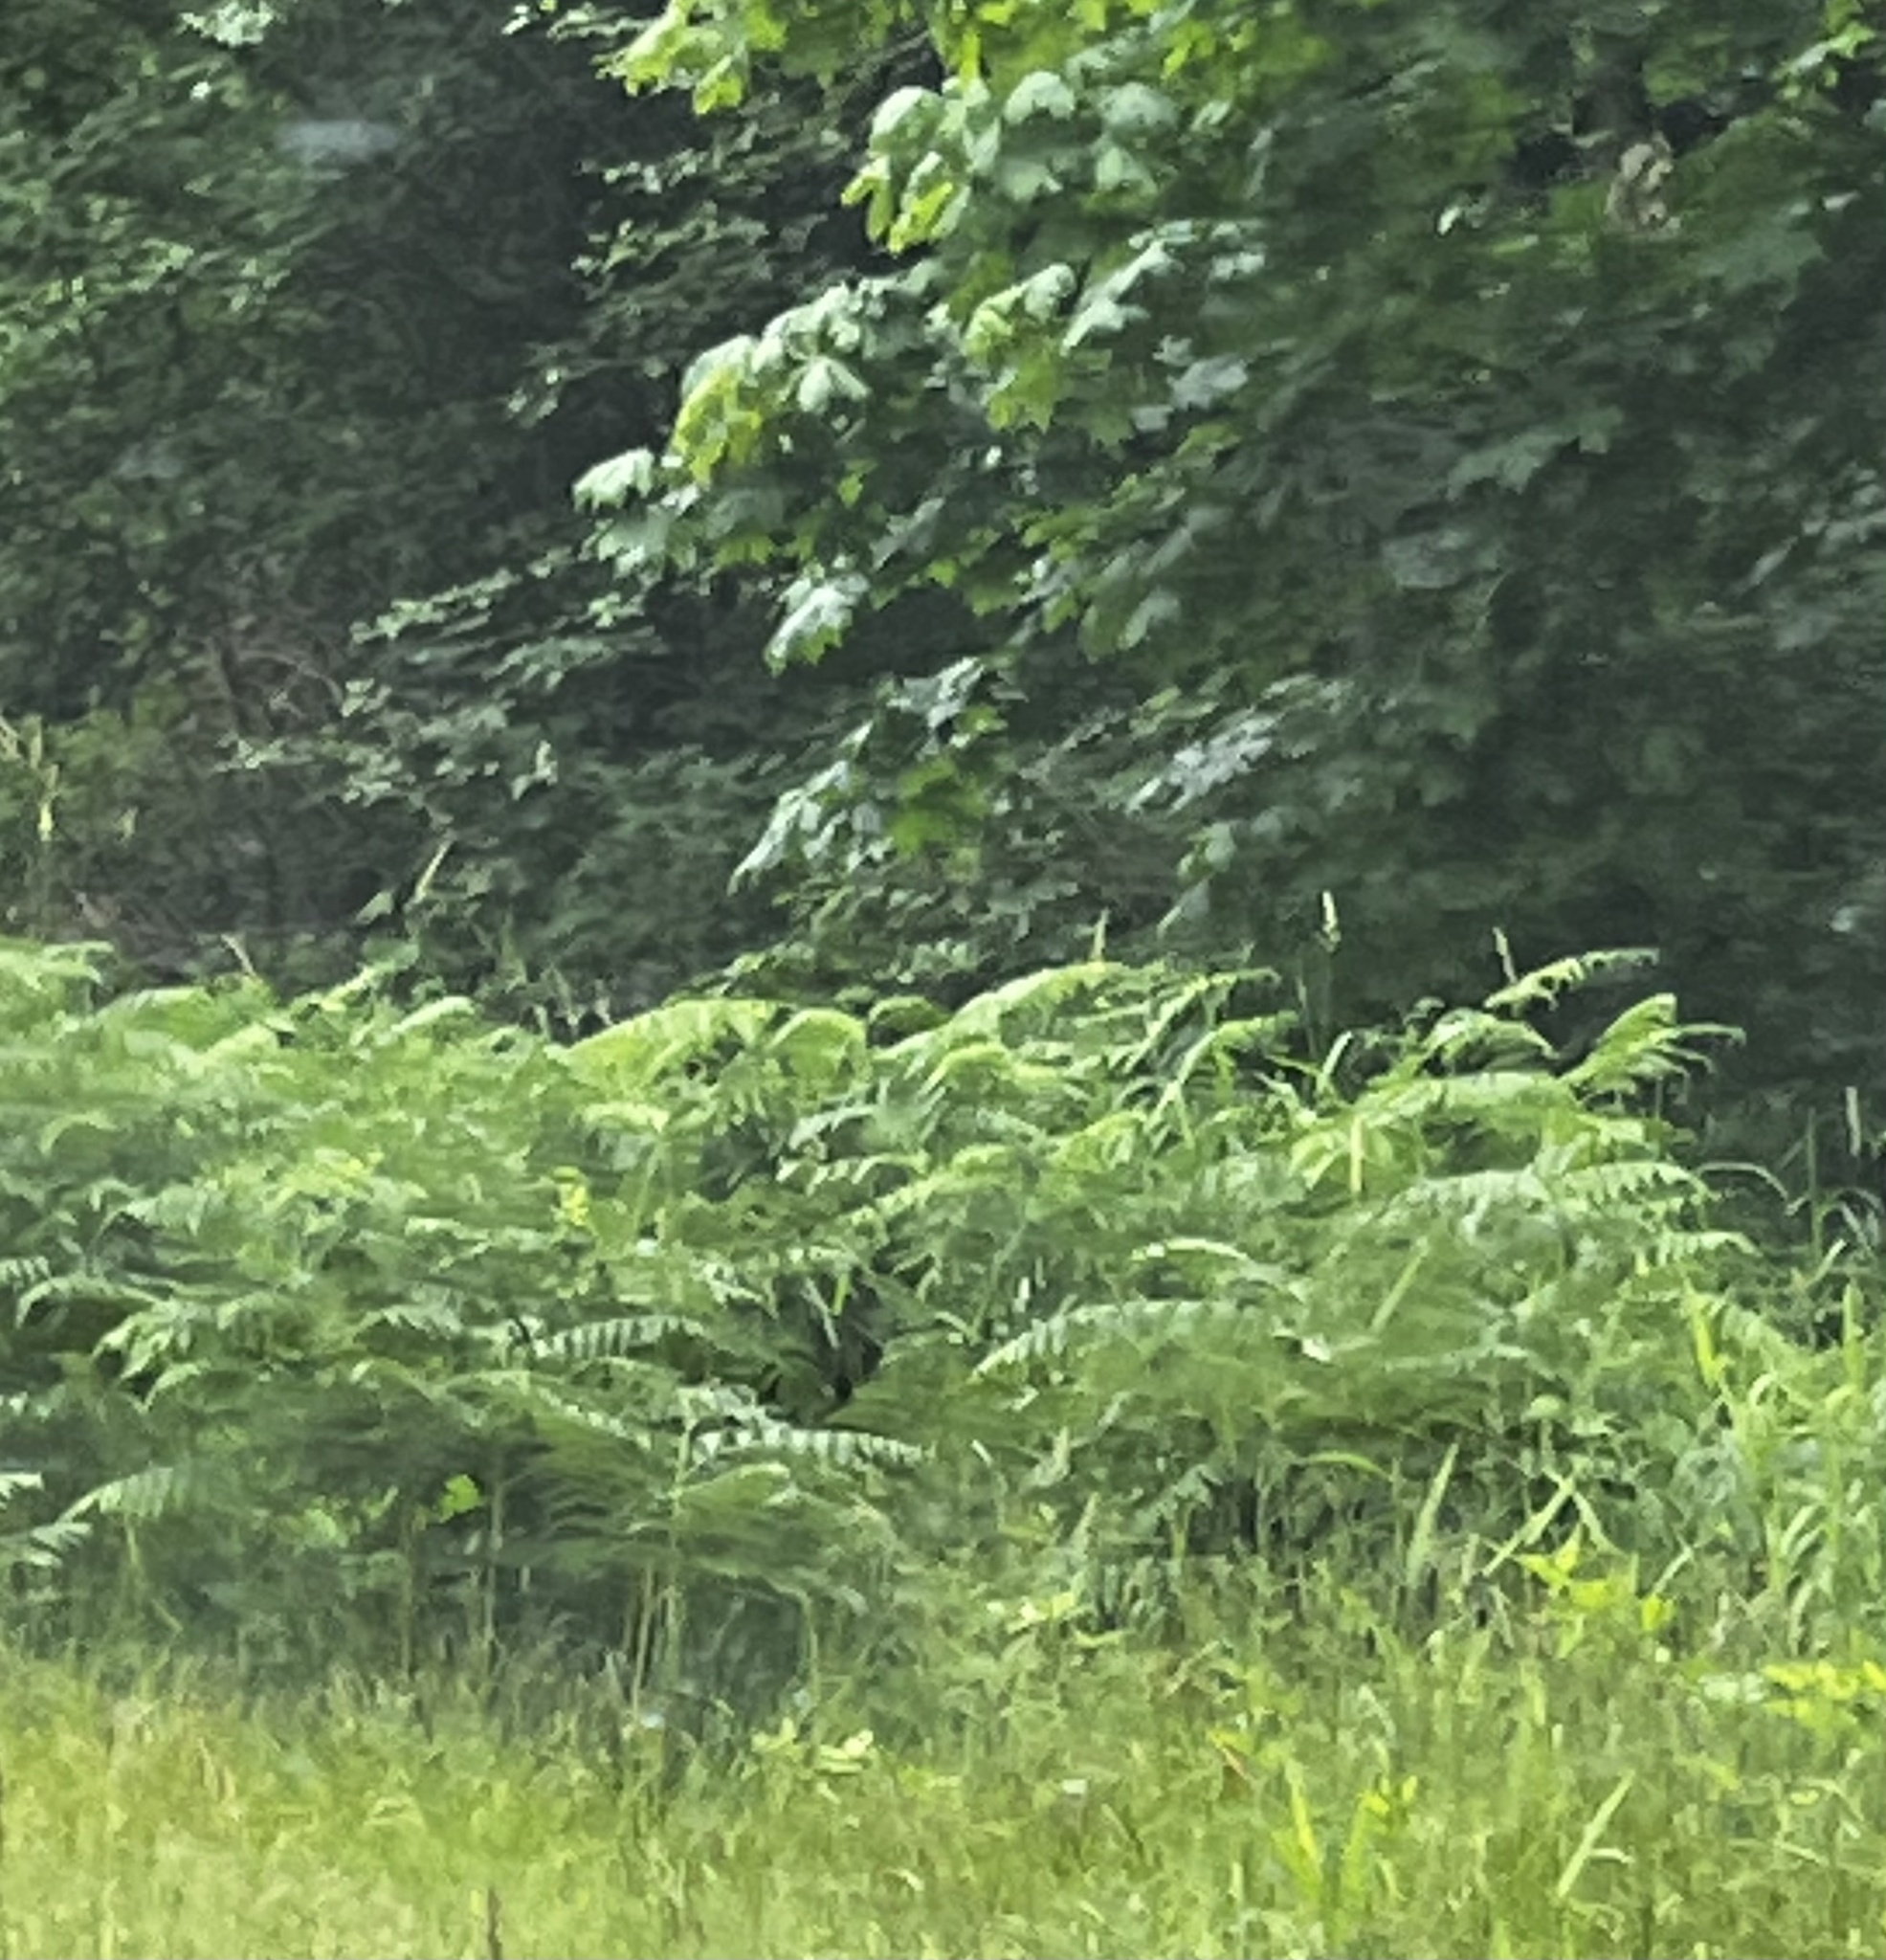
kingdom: Plantae
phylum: Tracheophyta
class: Polypodiopsida
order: Polypodiales
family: Dennstaedtiaceae
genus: Pteridium
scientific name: Pteridium aquilinum
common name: Bracken
